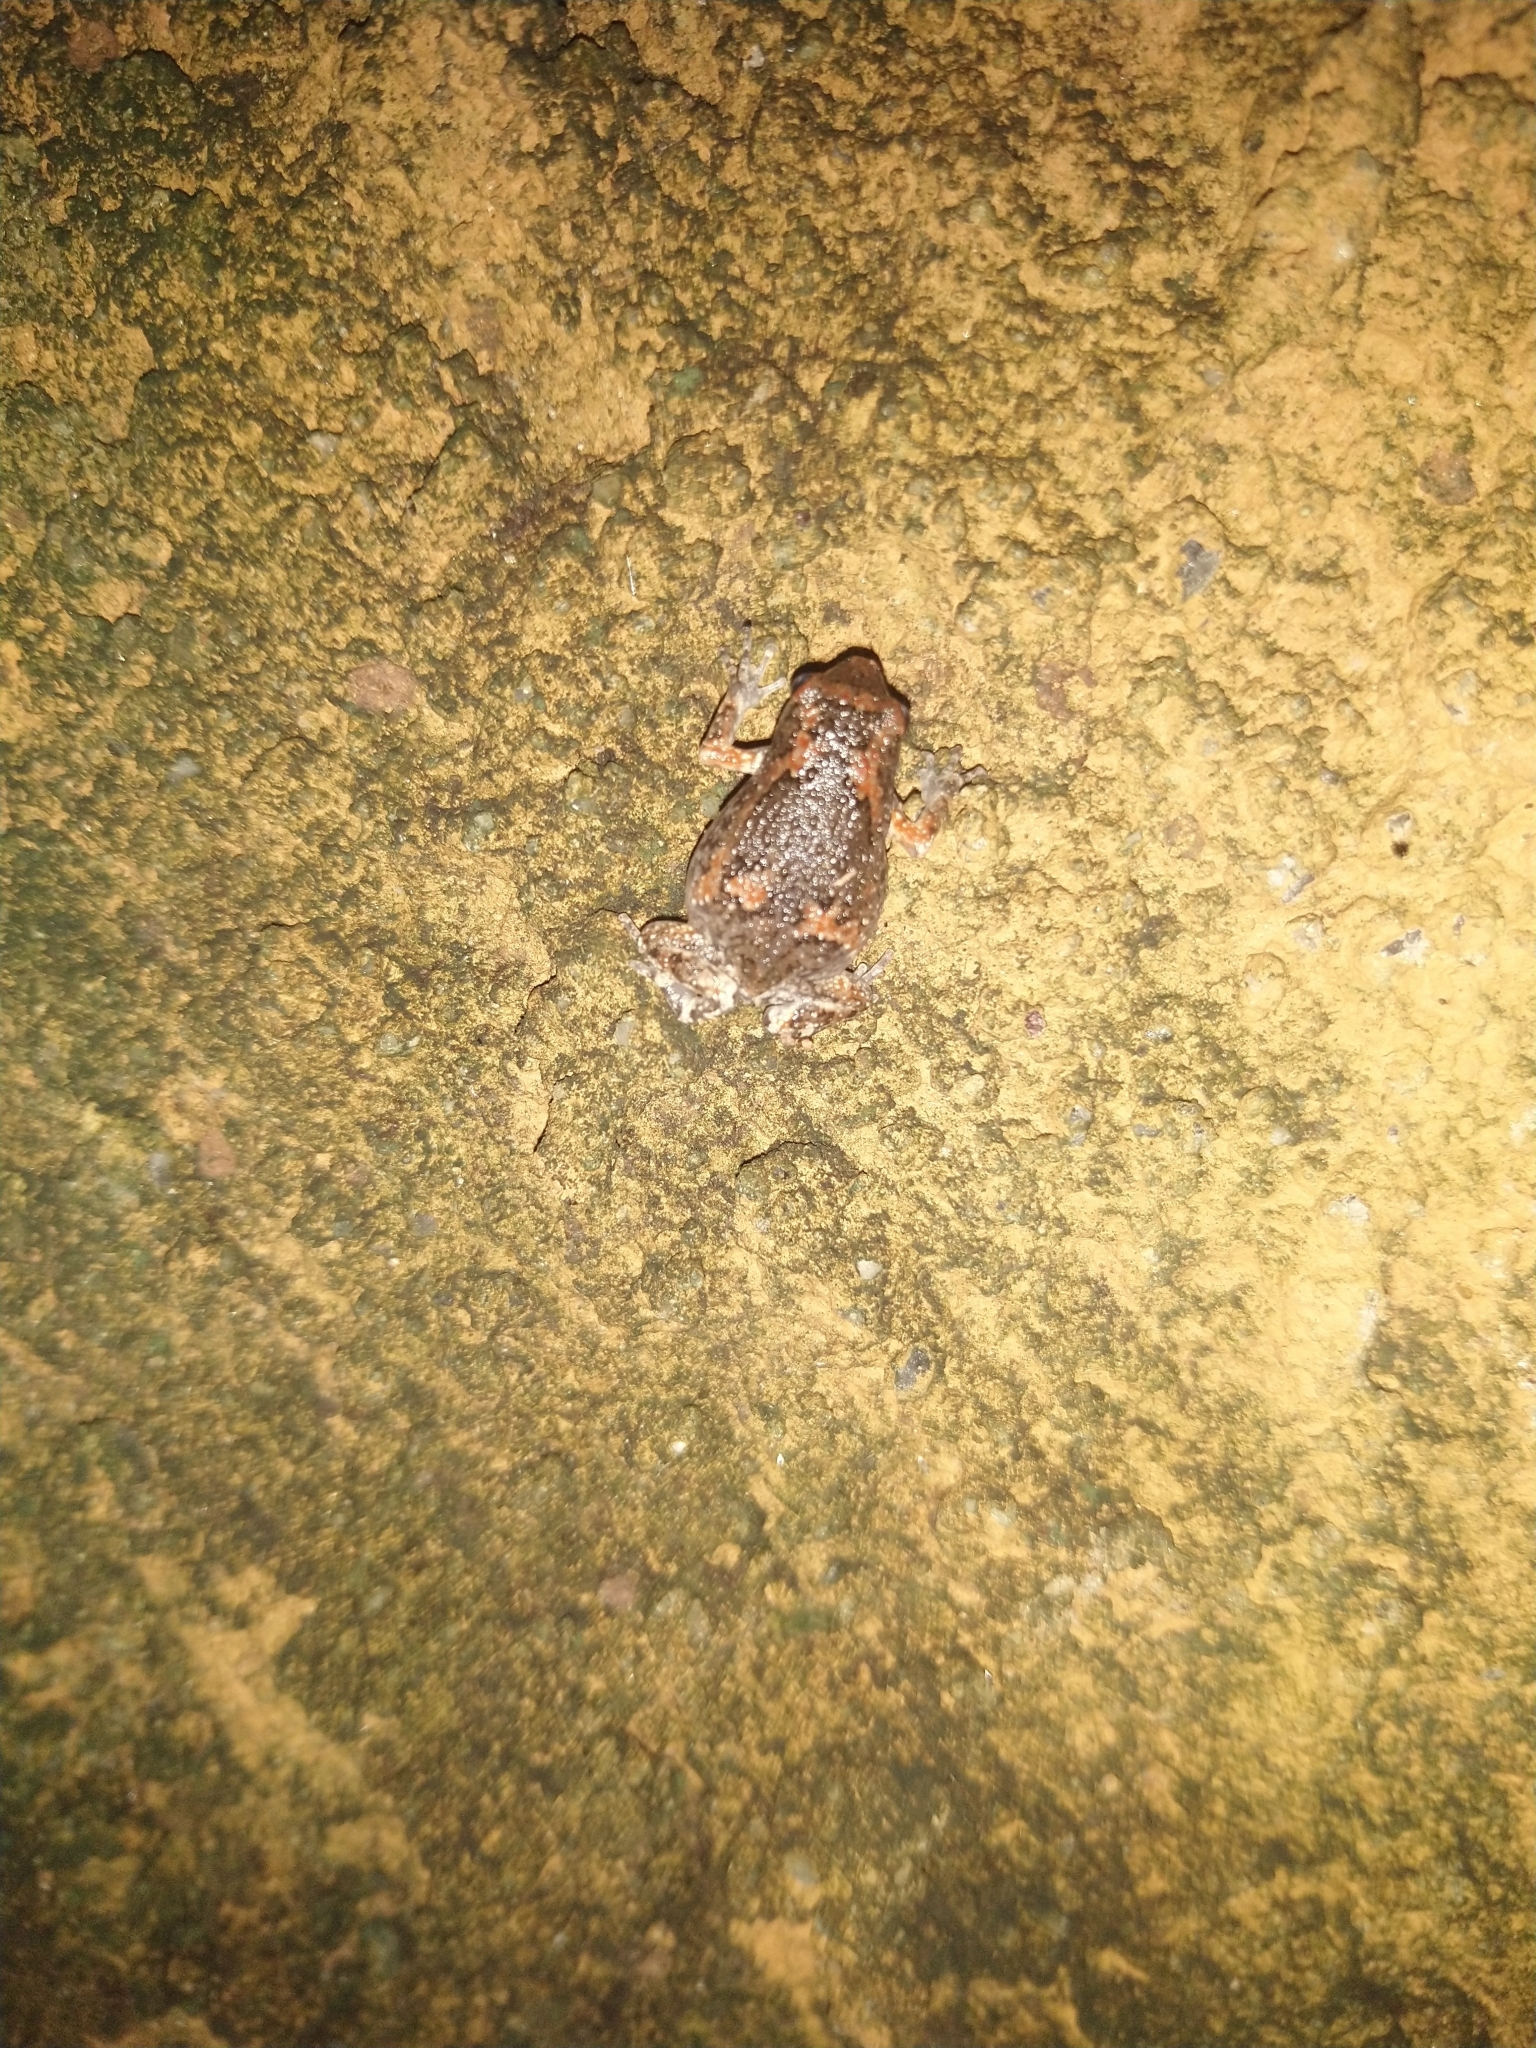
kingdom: Animalia
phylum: Chordata
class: Amphibia
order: Anura
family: Microhylidae
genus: Uperodon
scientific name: Uperodon taprobanicus
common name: Ceylon kaloula
